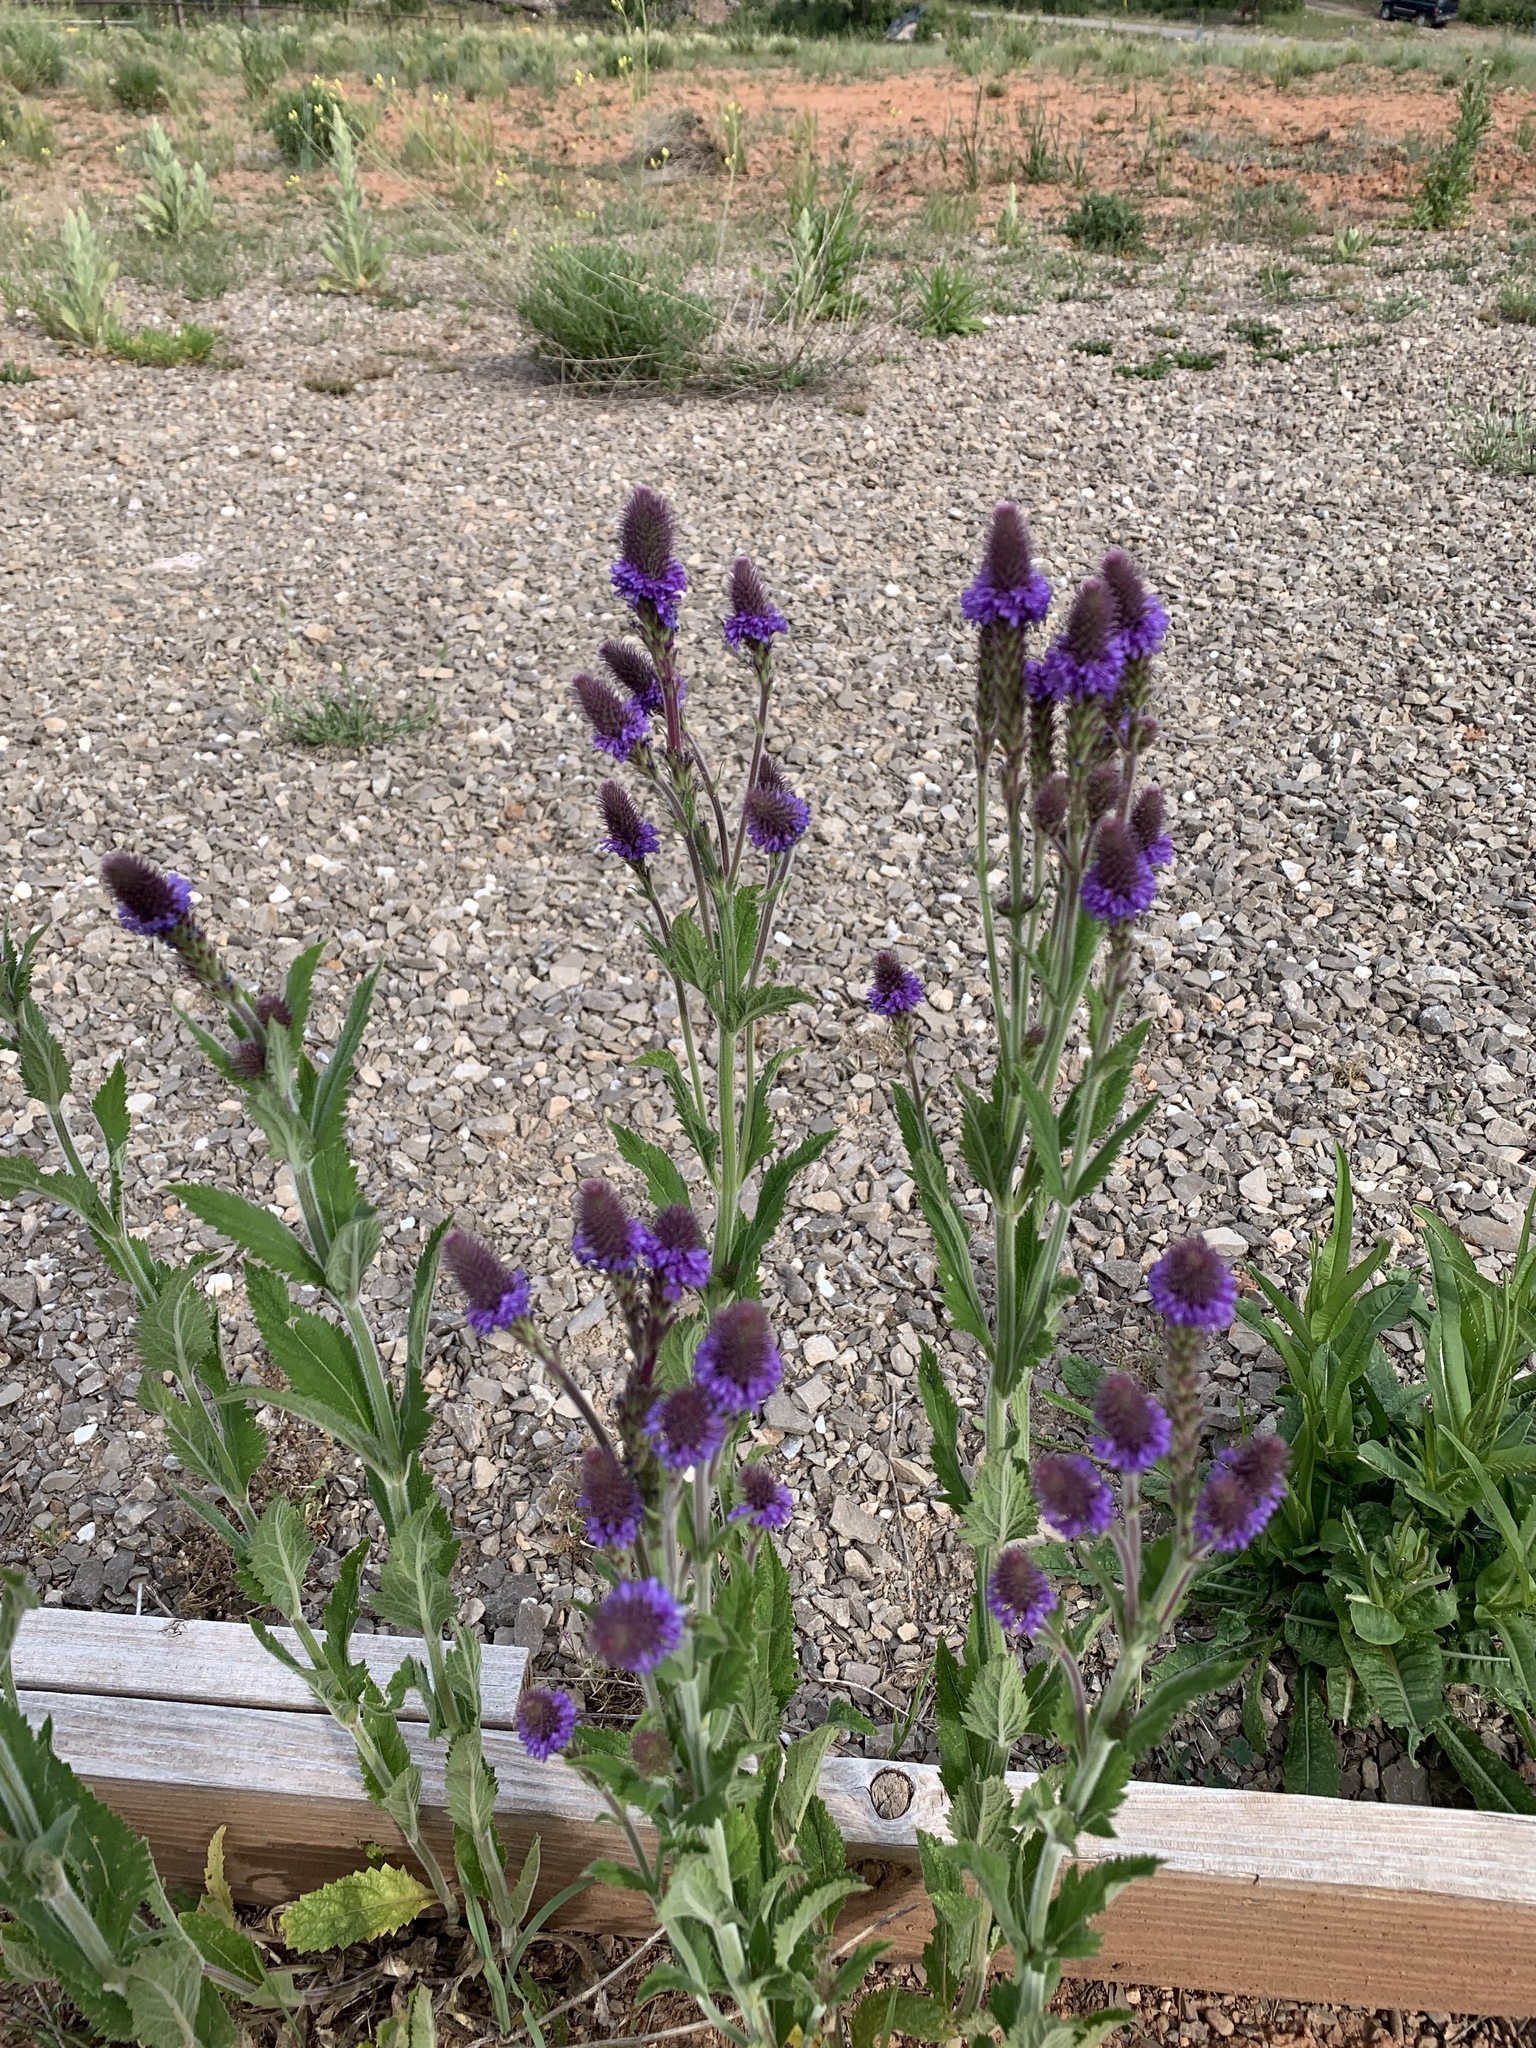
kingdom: Plantae
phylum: Tracheophyta
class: Magnoliopsida
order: Lamiales
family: Verbenaceae
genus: Verbena
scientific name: Verbena macdougalii
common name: New mexico vervain
